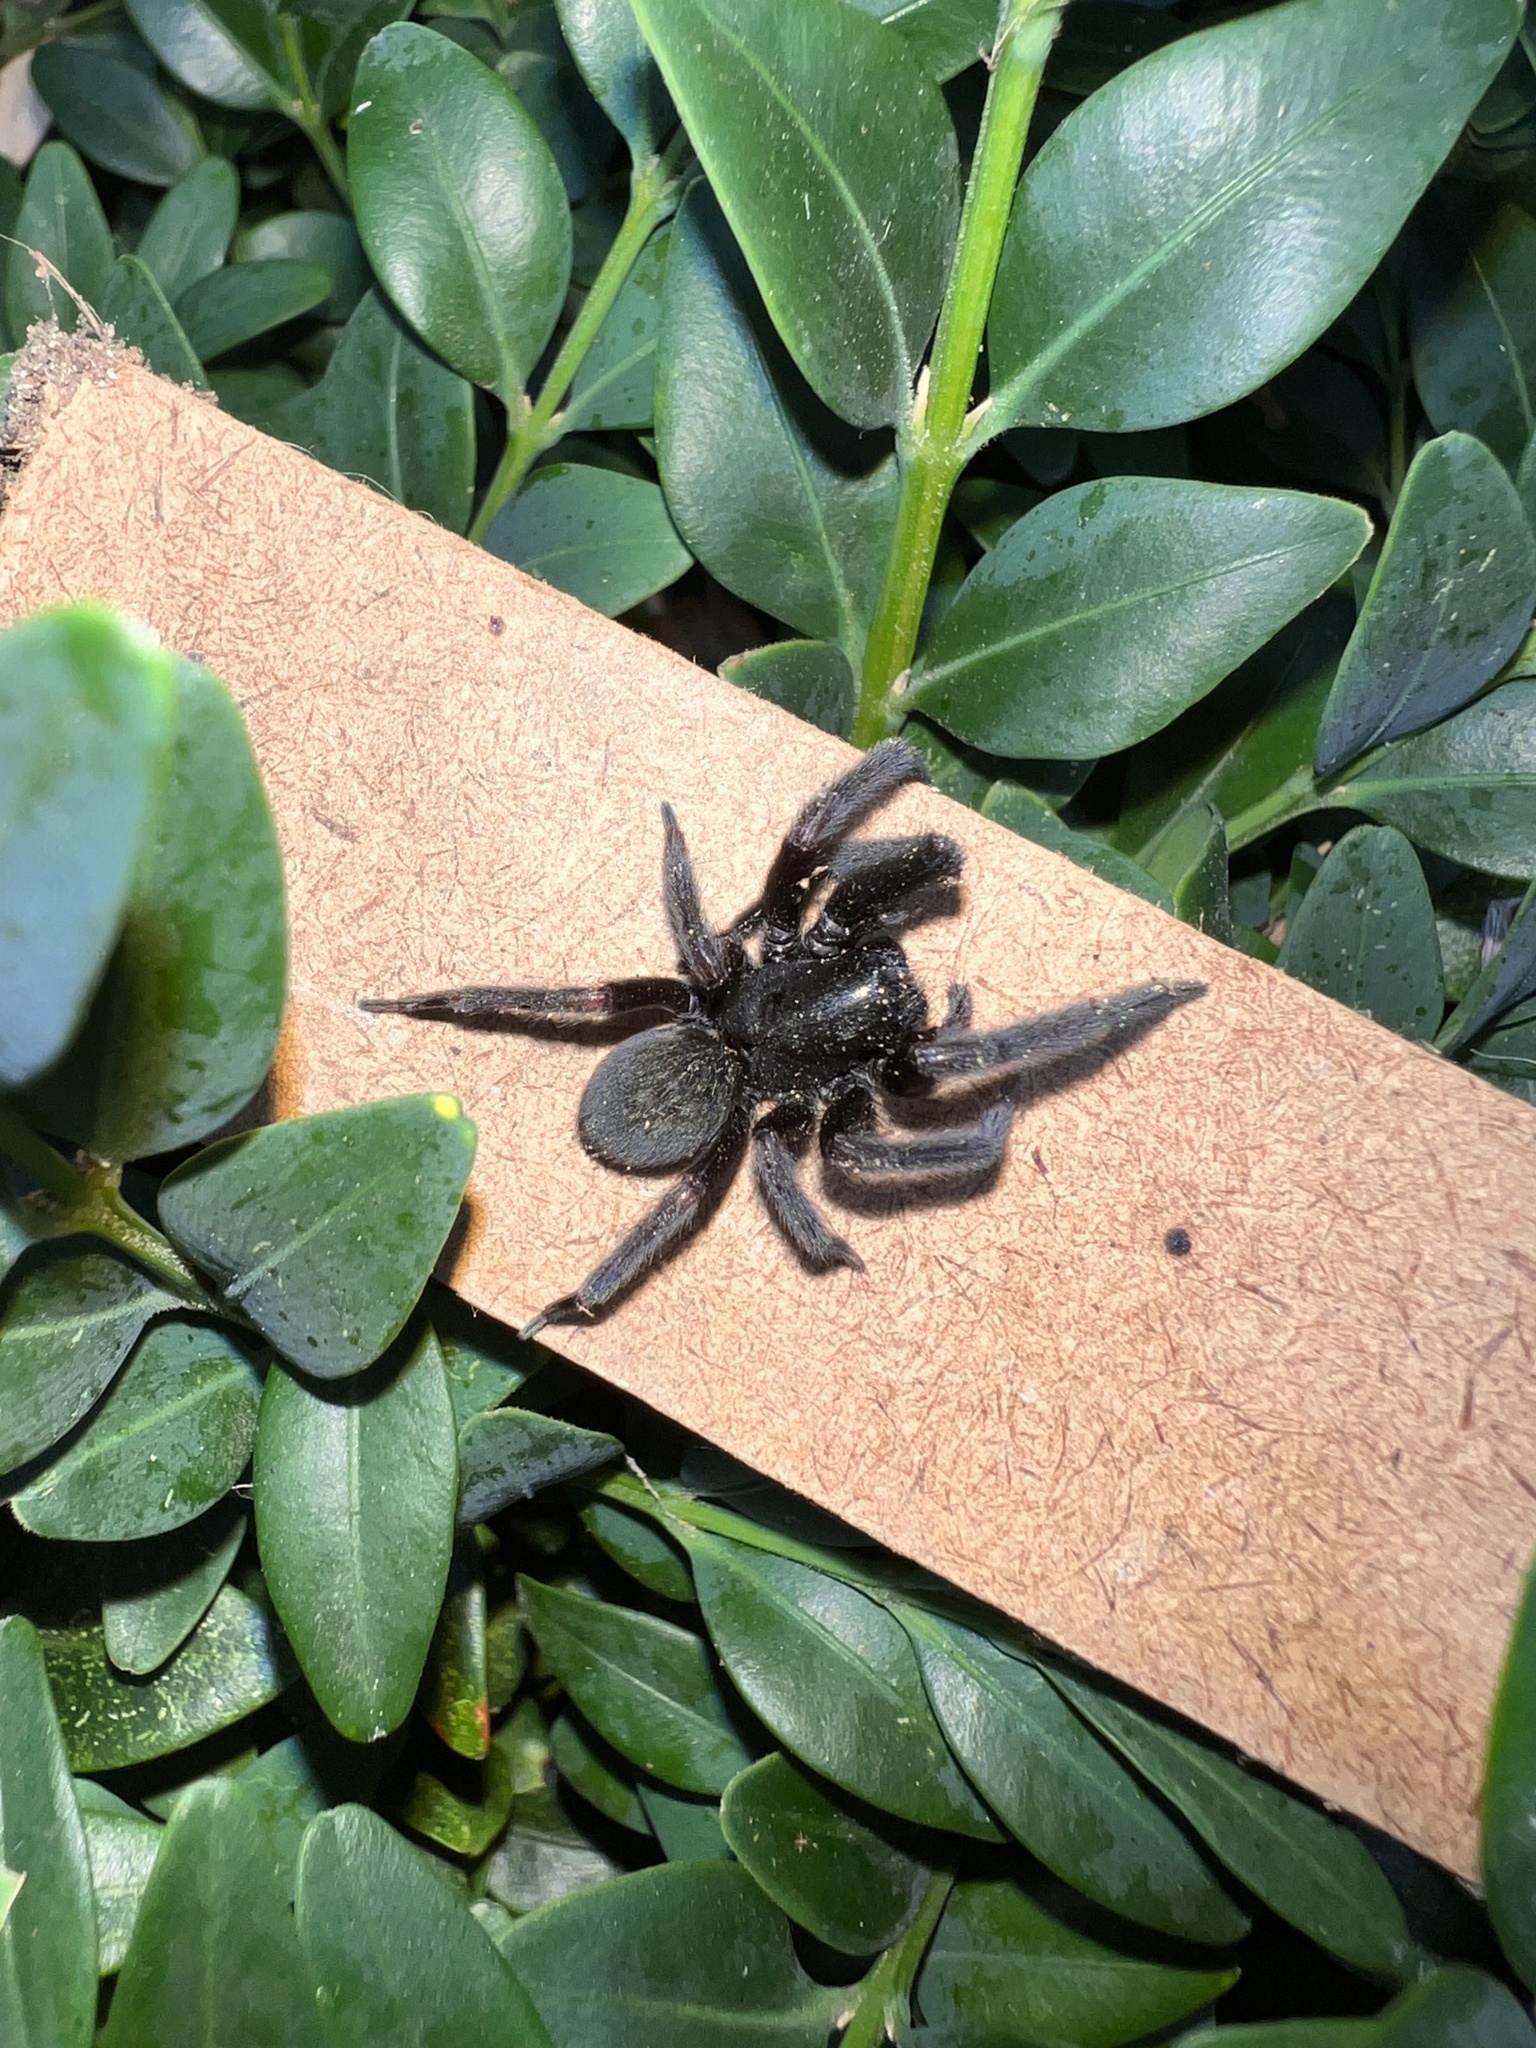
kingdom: Animalia
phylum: Arthropoda
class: Arachnida
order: Araneae
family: Desidae
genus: Badumna
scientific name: Badumna insignis
